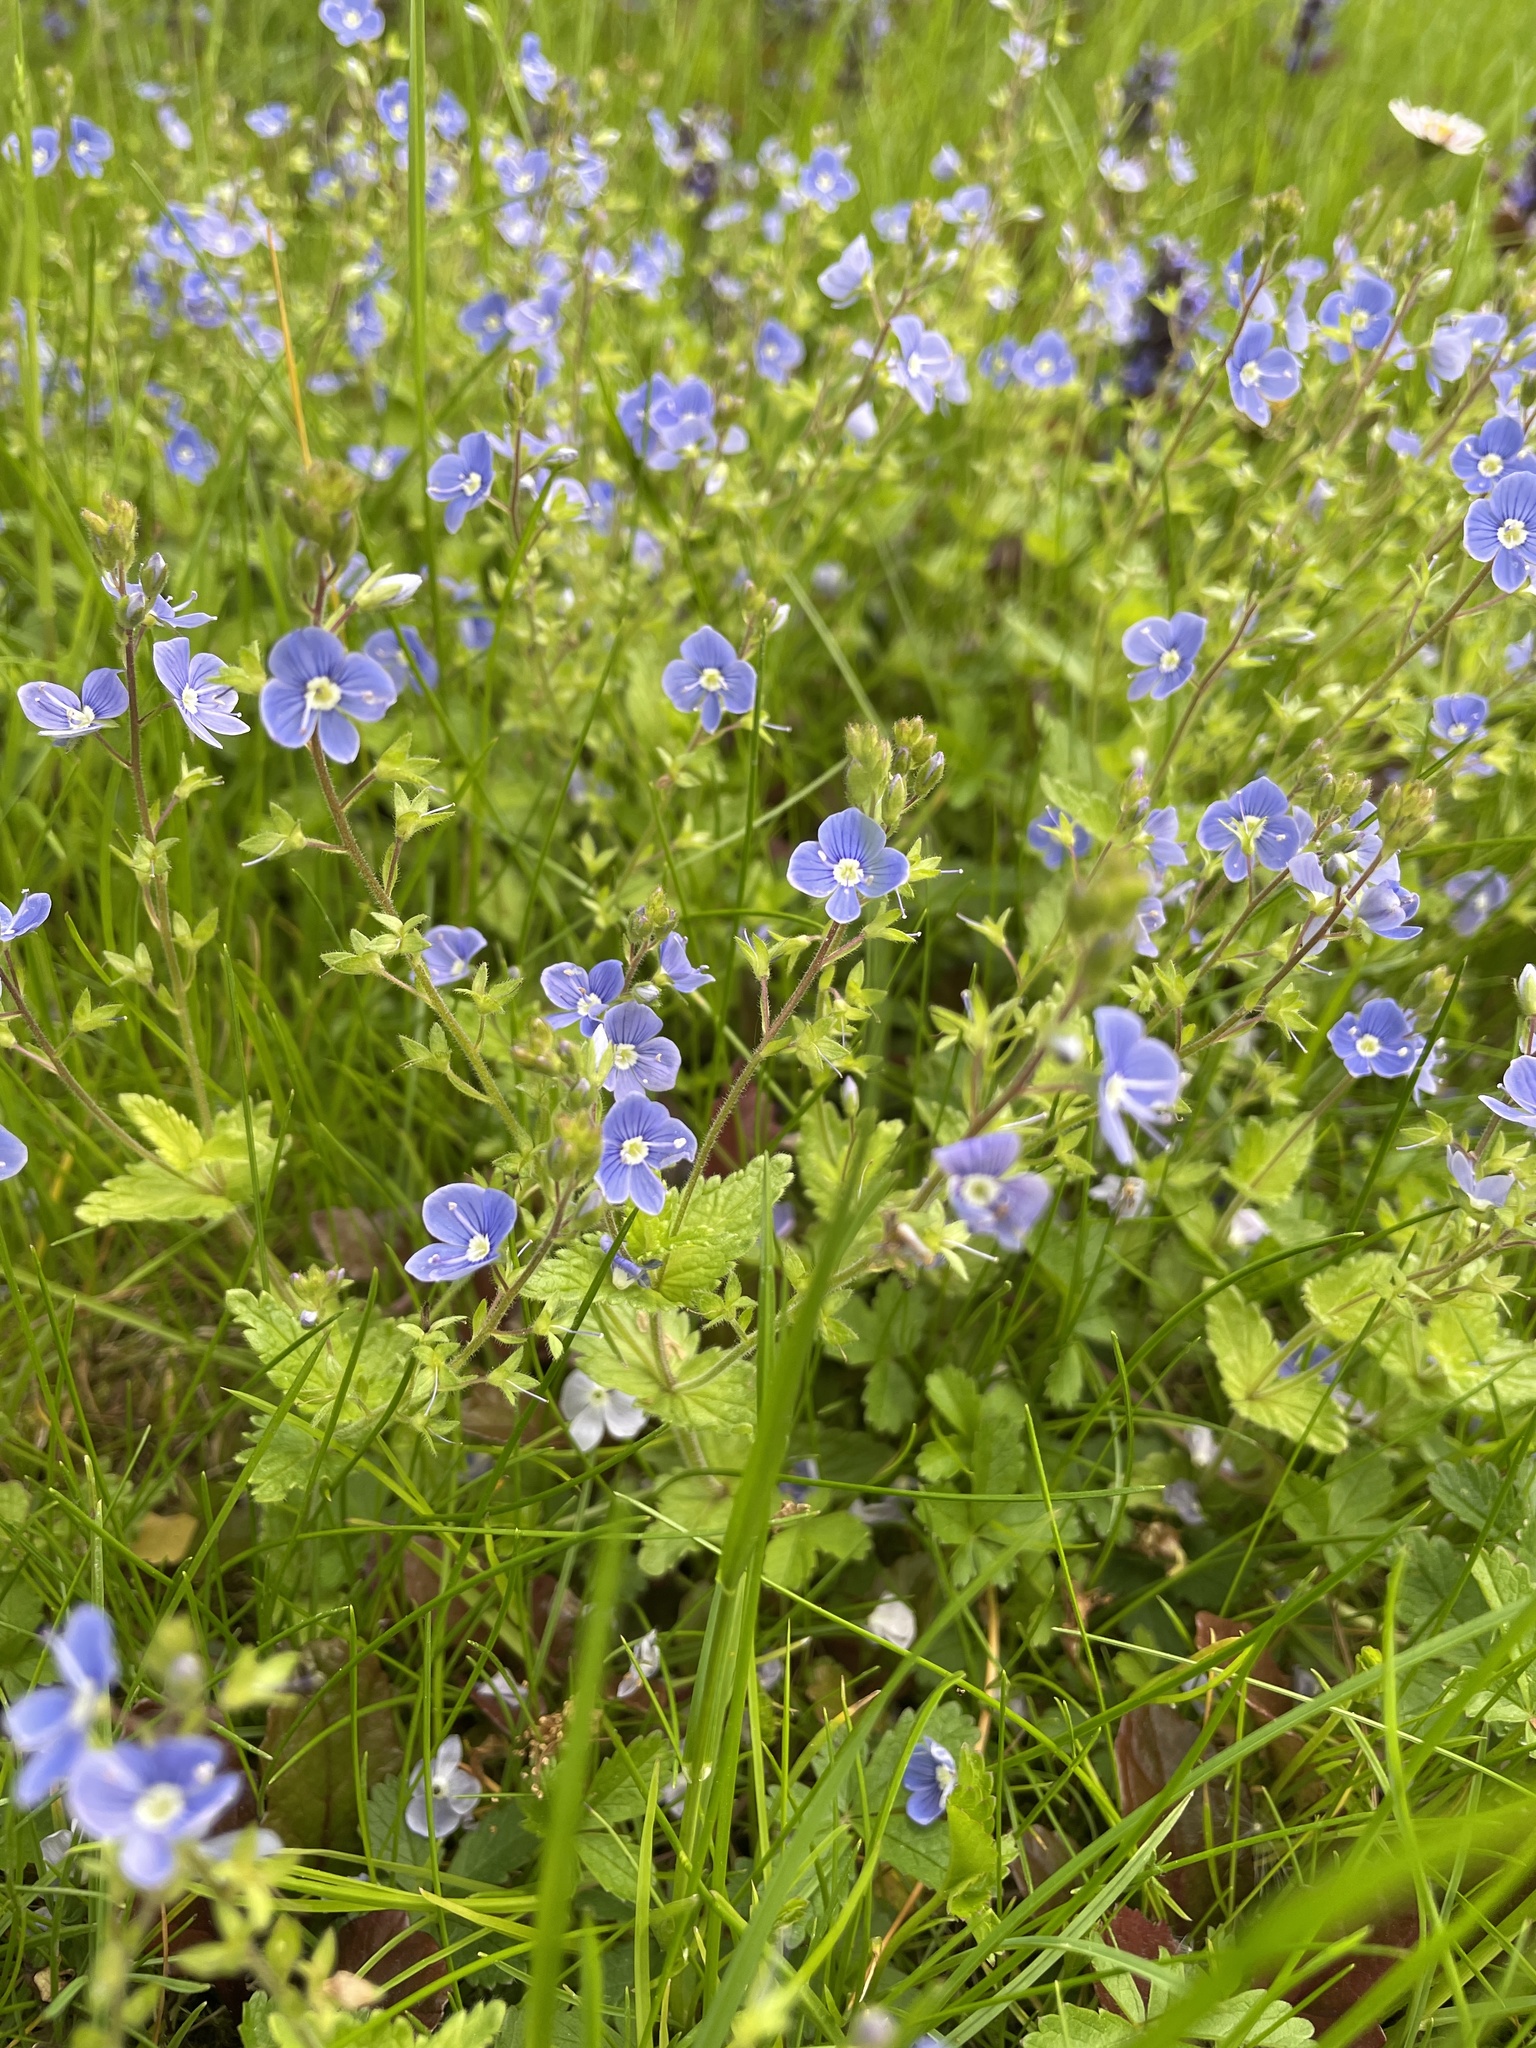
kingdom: Plantae
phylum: Tracheophyta
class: Magnoliopsida
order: Lamiales
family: Plantaginaceae
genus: Veronica
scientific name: Veronica chamaedrys
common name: Germander speedwell
